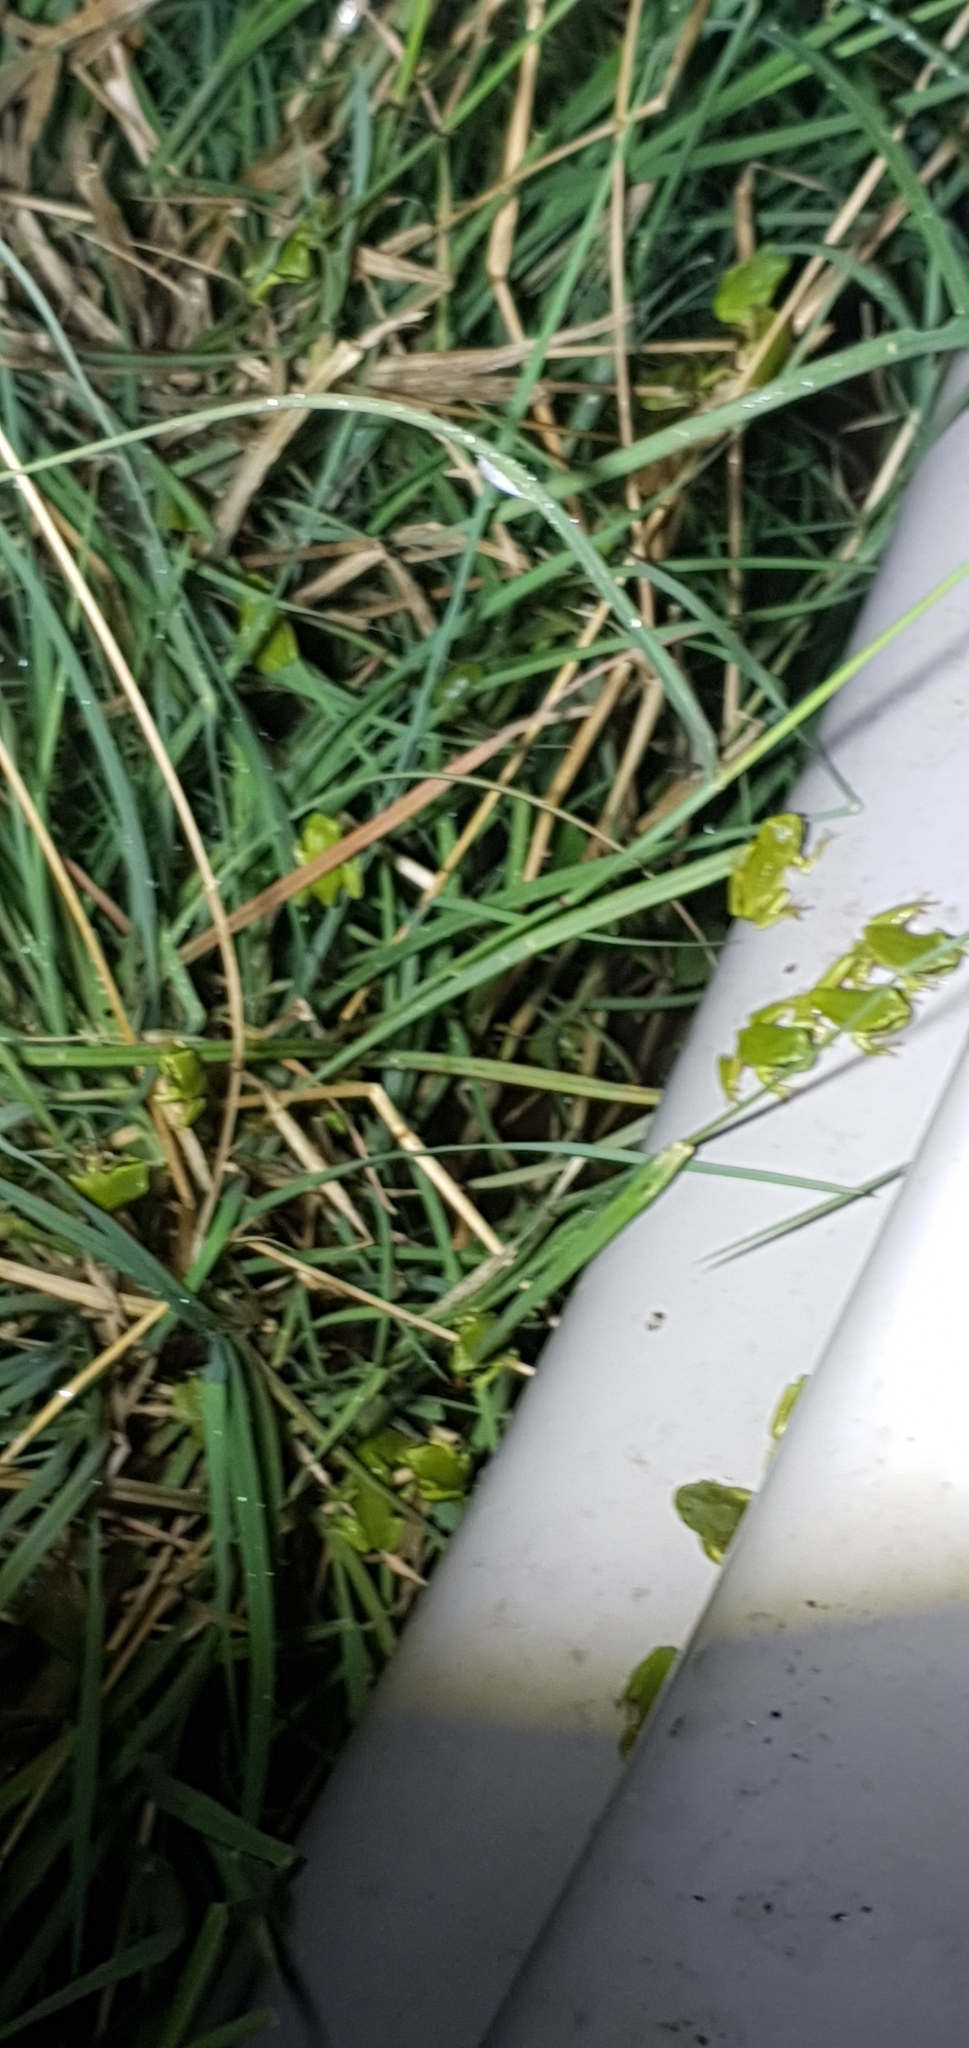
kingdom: Animalia
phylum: Chordata
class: Amphibia
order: Anura
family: Pelodryadidae
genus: Ranoidea
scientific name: Ranoidea caerulea
